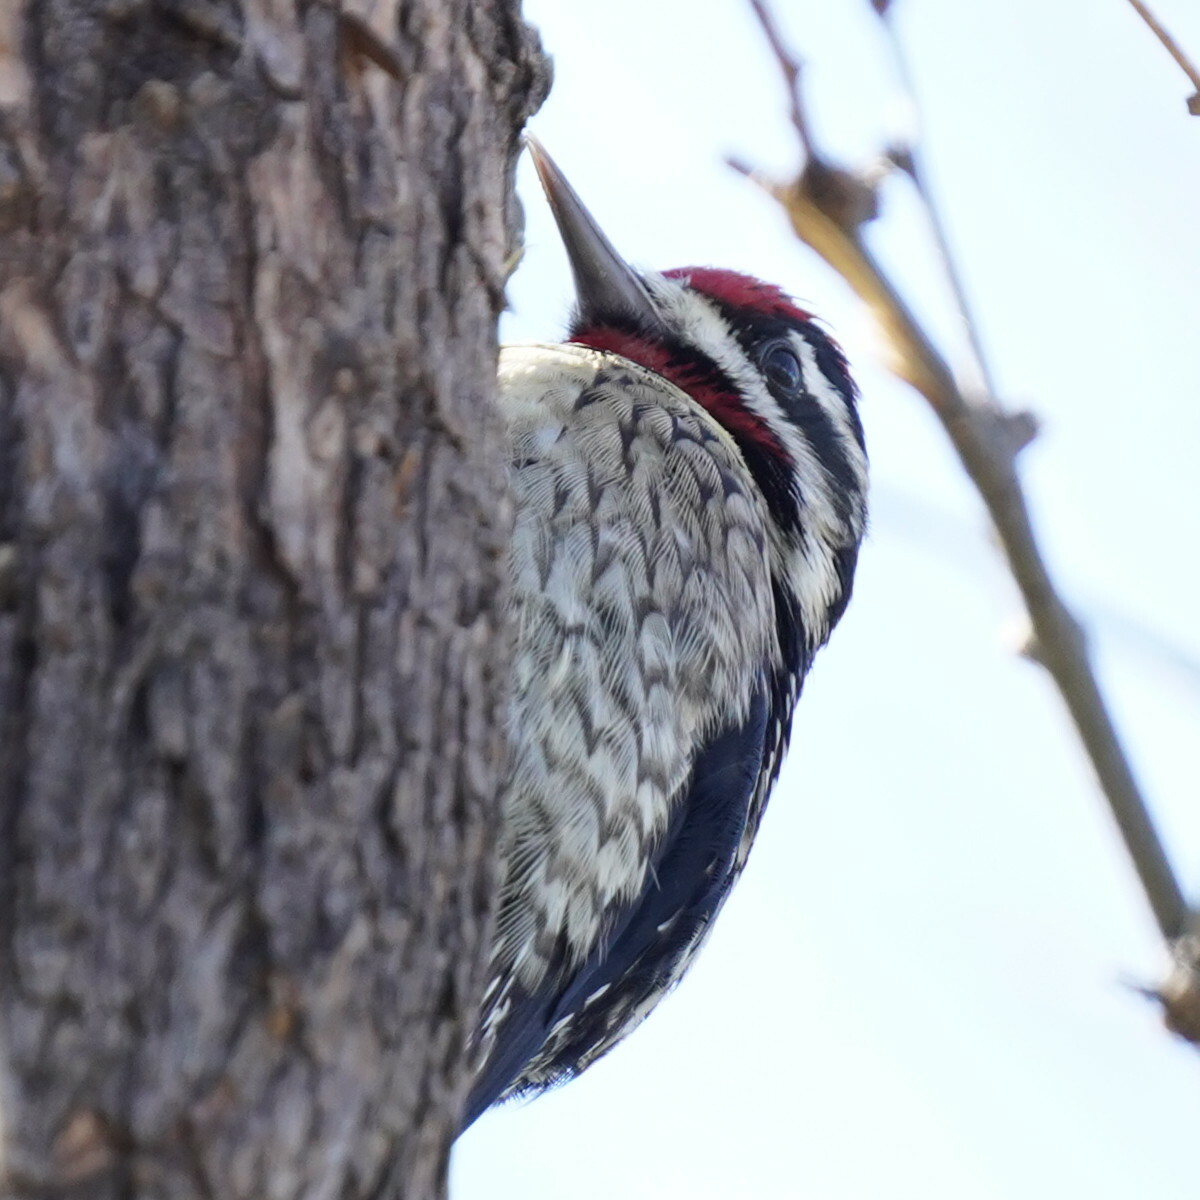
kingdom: Animalia
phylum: Chordata
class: Aves
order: Piciformes
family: Picidae
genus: Sphyrapicus
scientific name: Sphyrapicus nuchalis
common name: Red-naped sapsucker
